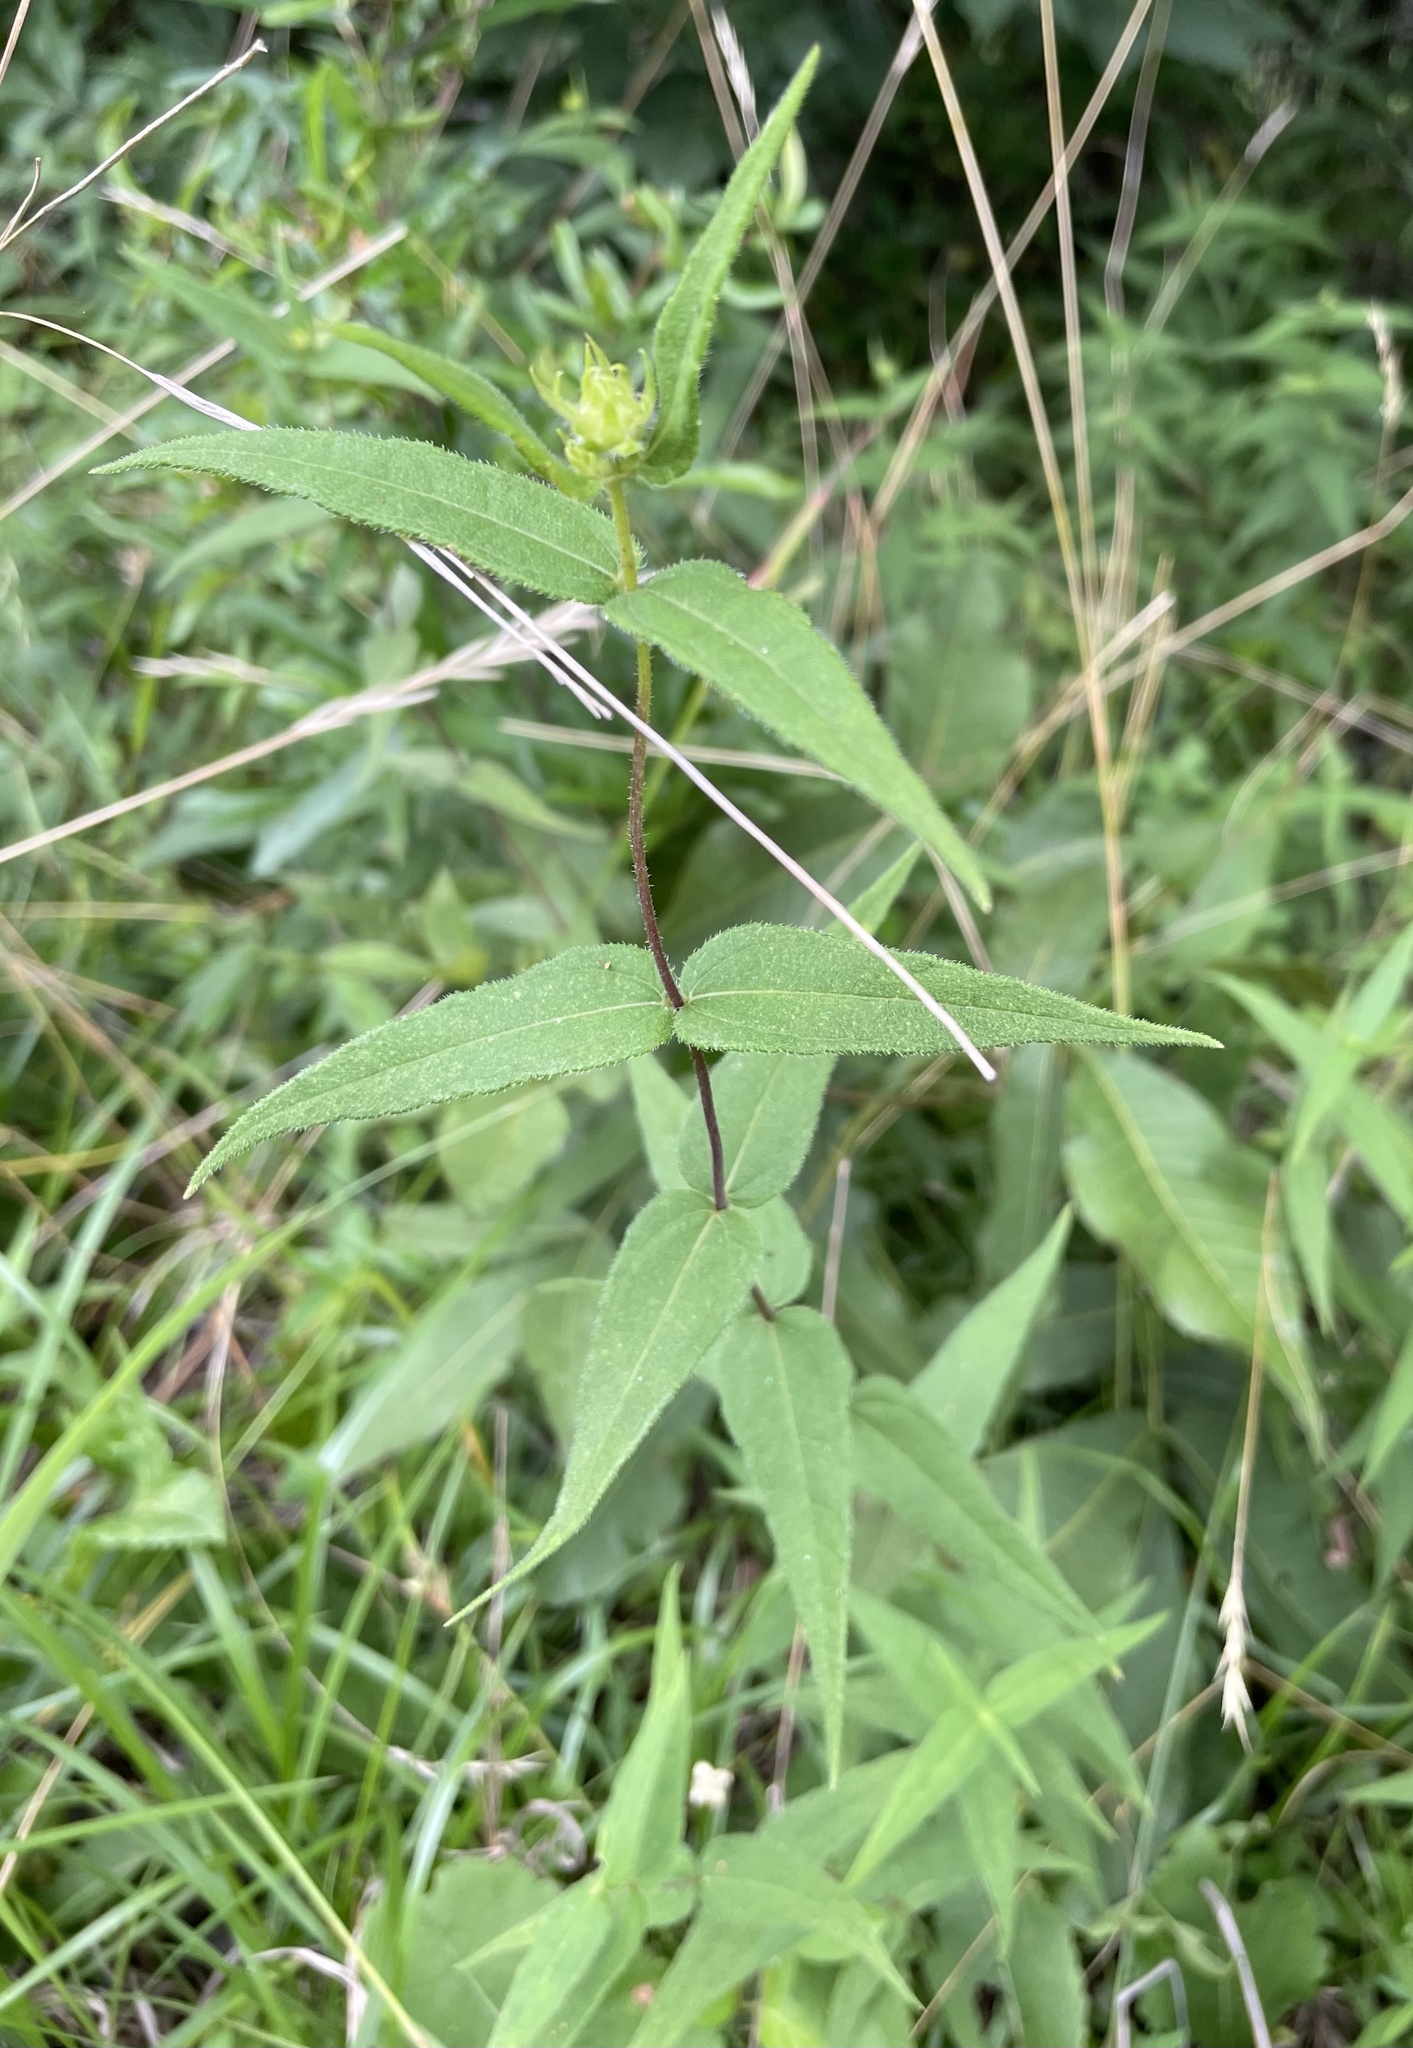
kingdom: Plantae
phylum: Tracheophyta
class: Magnoliopsida
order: Asterales
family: Asteraceae
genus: Helianthus
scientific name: Helianthus divaricatus
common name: Divergent sunflower
